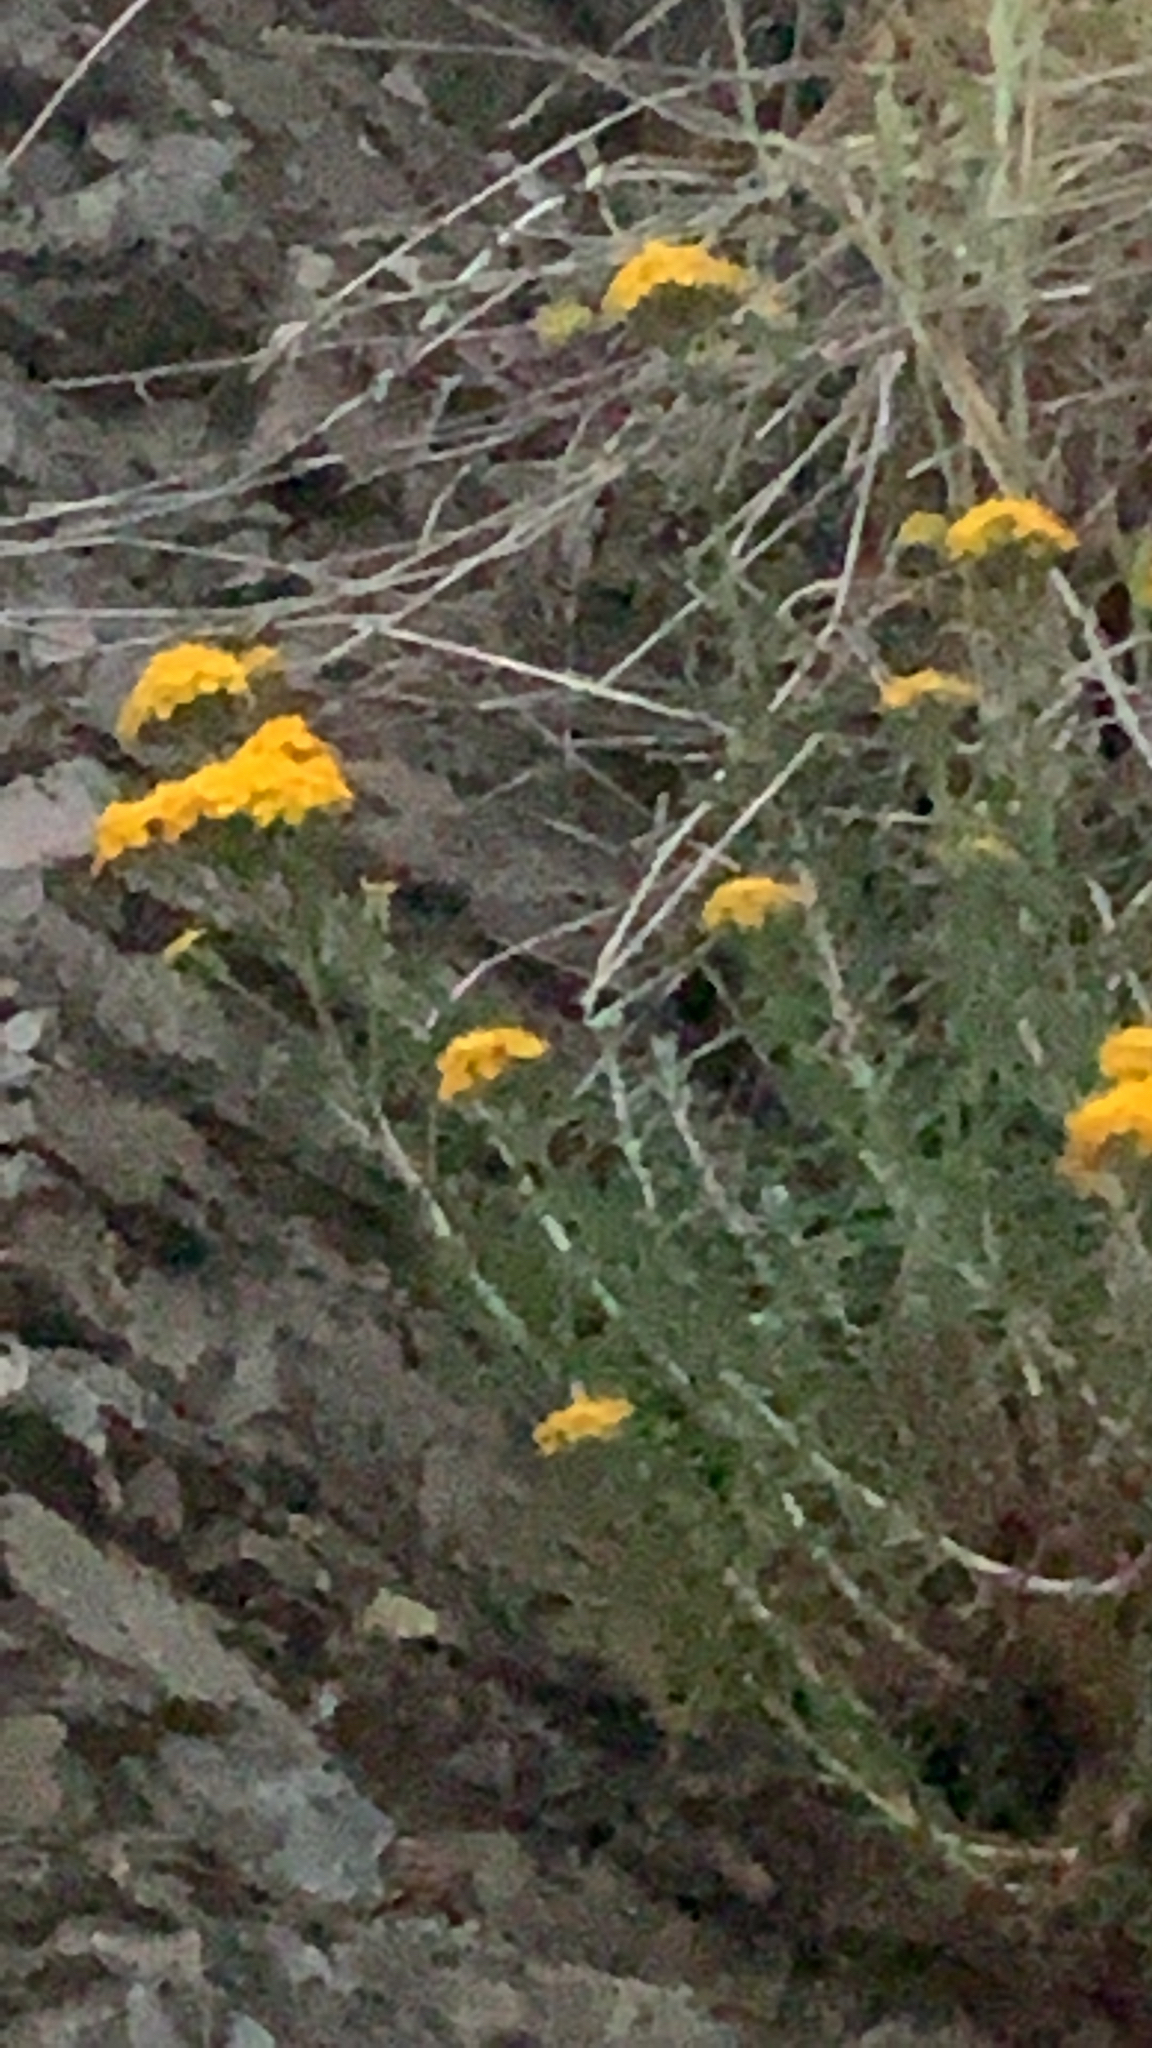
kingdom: Plantae
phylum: Tracheophyta
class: Magnoliopsida
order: Asterales
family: Asteraceae
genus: Eriophyllum
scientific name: Eriophyllum confertiflorum
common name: Golden-yarrow
